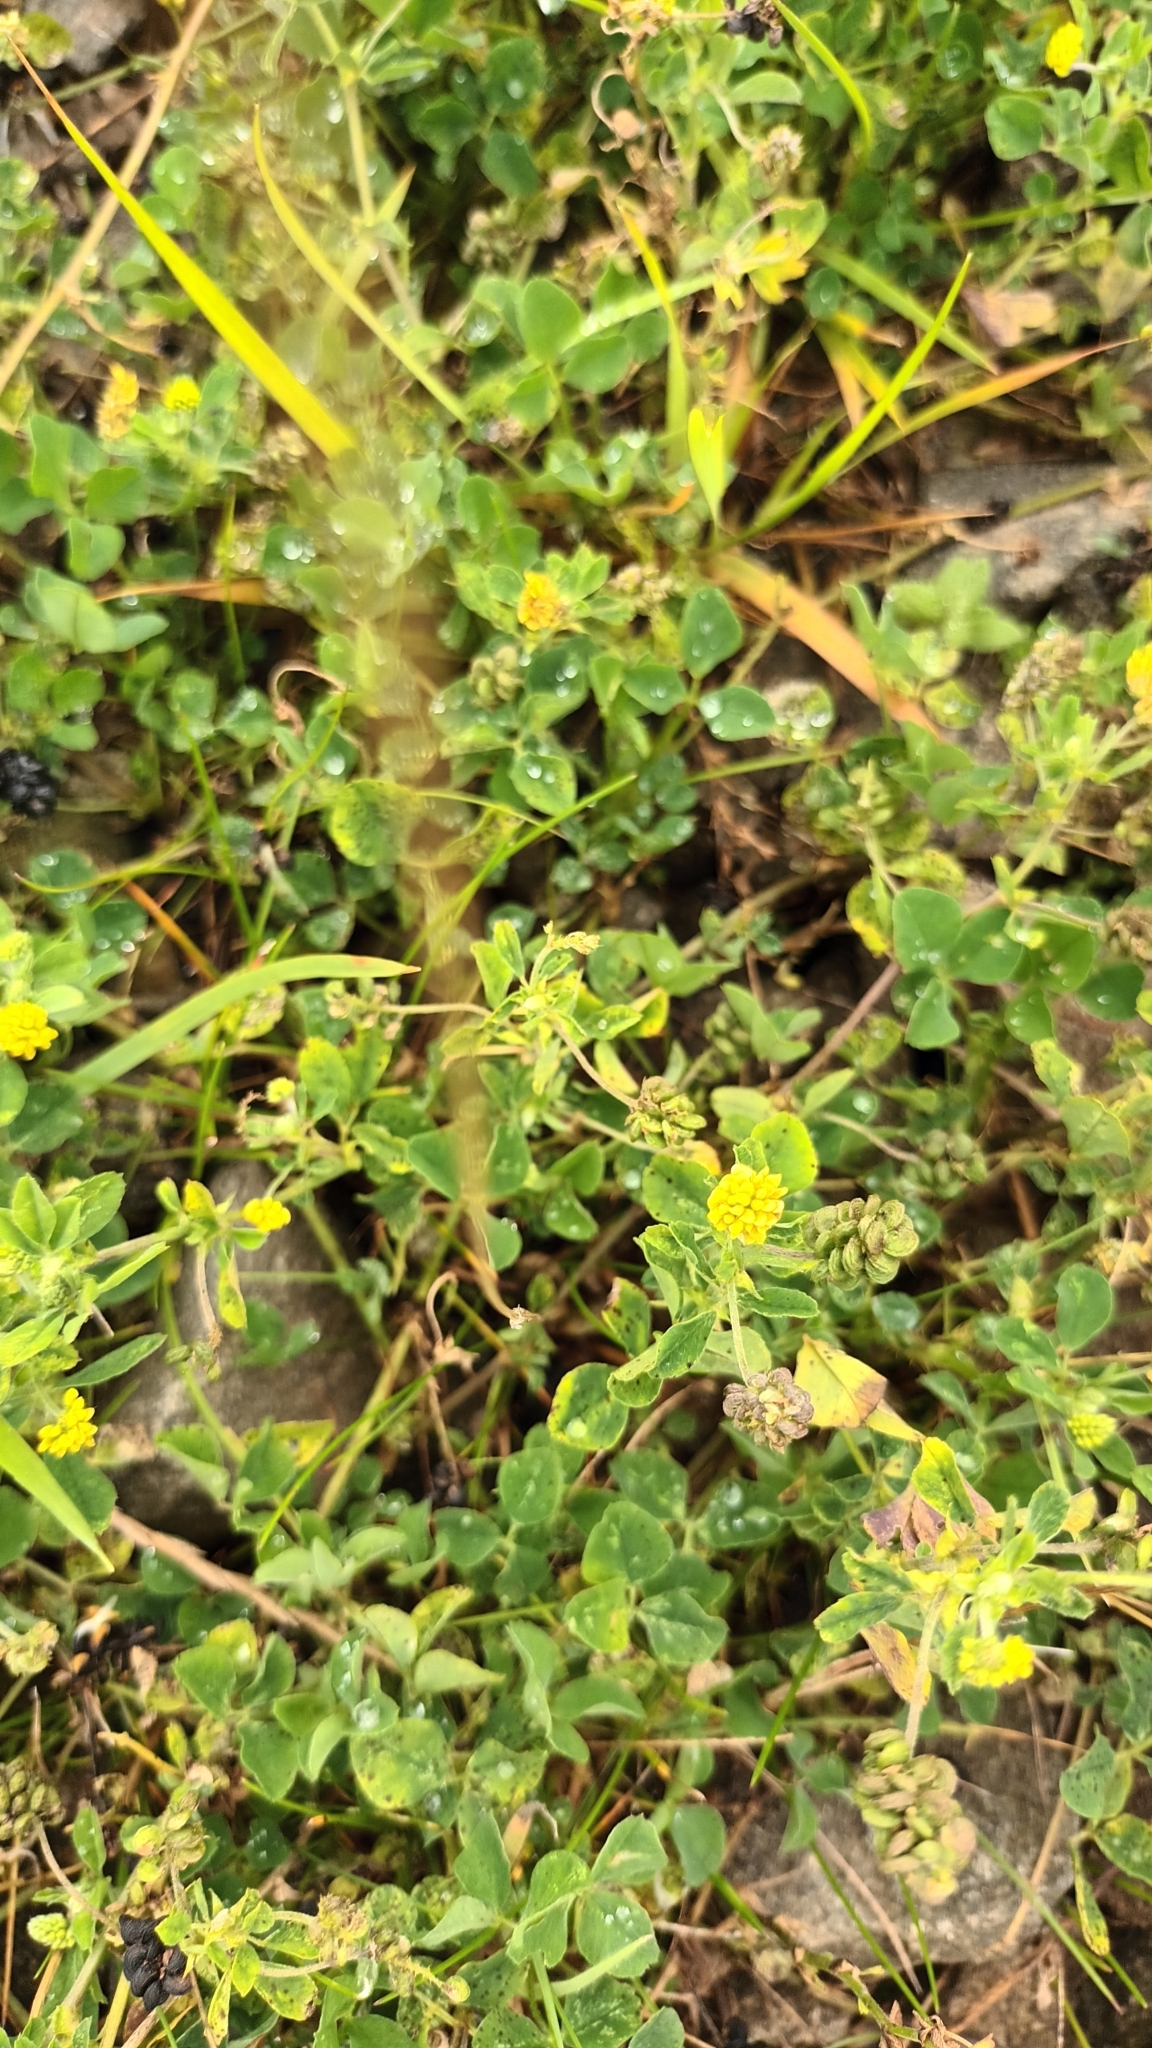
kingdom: Plantae
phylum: Tracheophyta
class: Magnoliopsida
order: Fabales
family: Fabaceae
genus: Medicago
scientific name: Medicago lupulina
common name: Black medick
